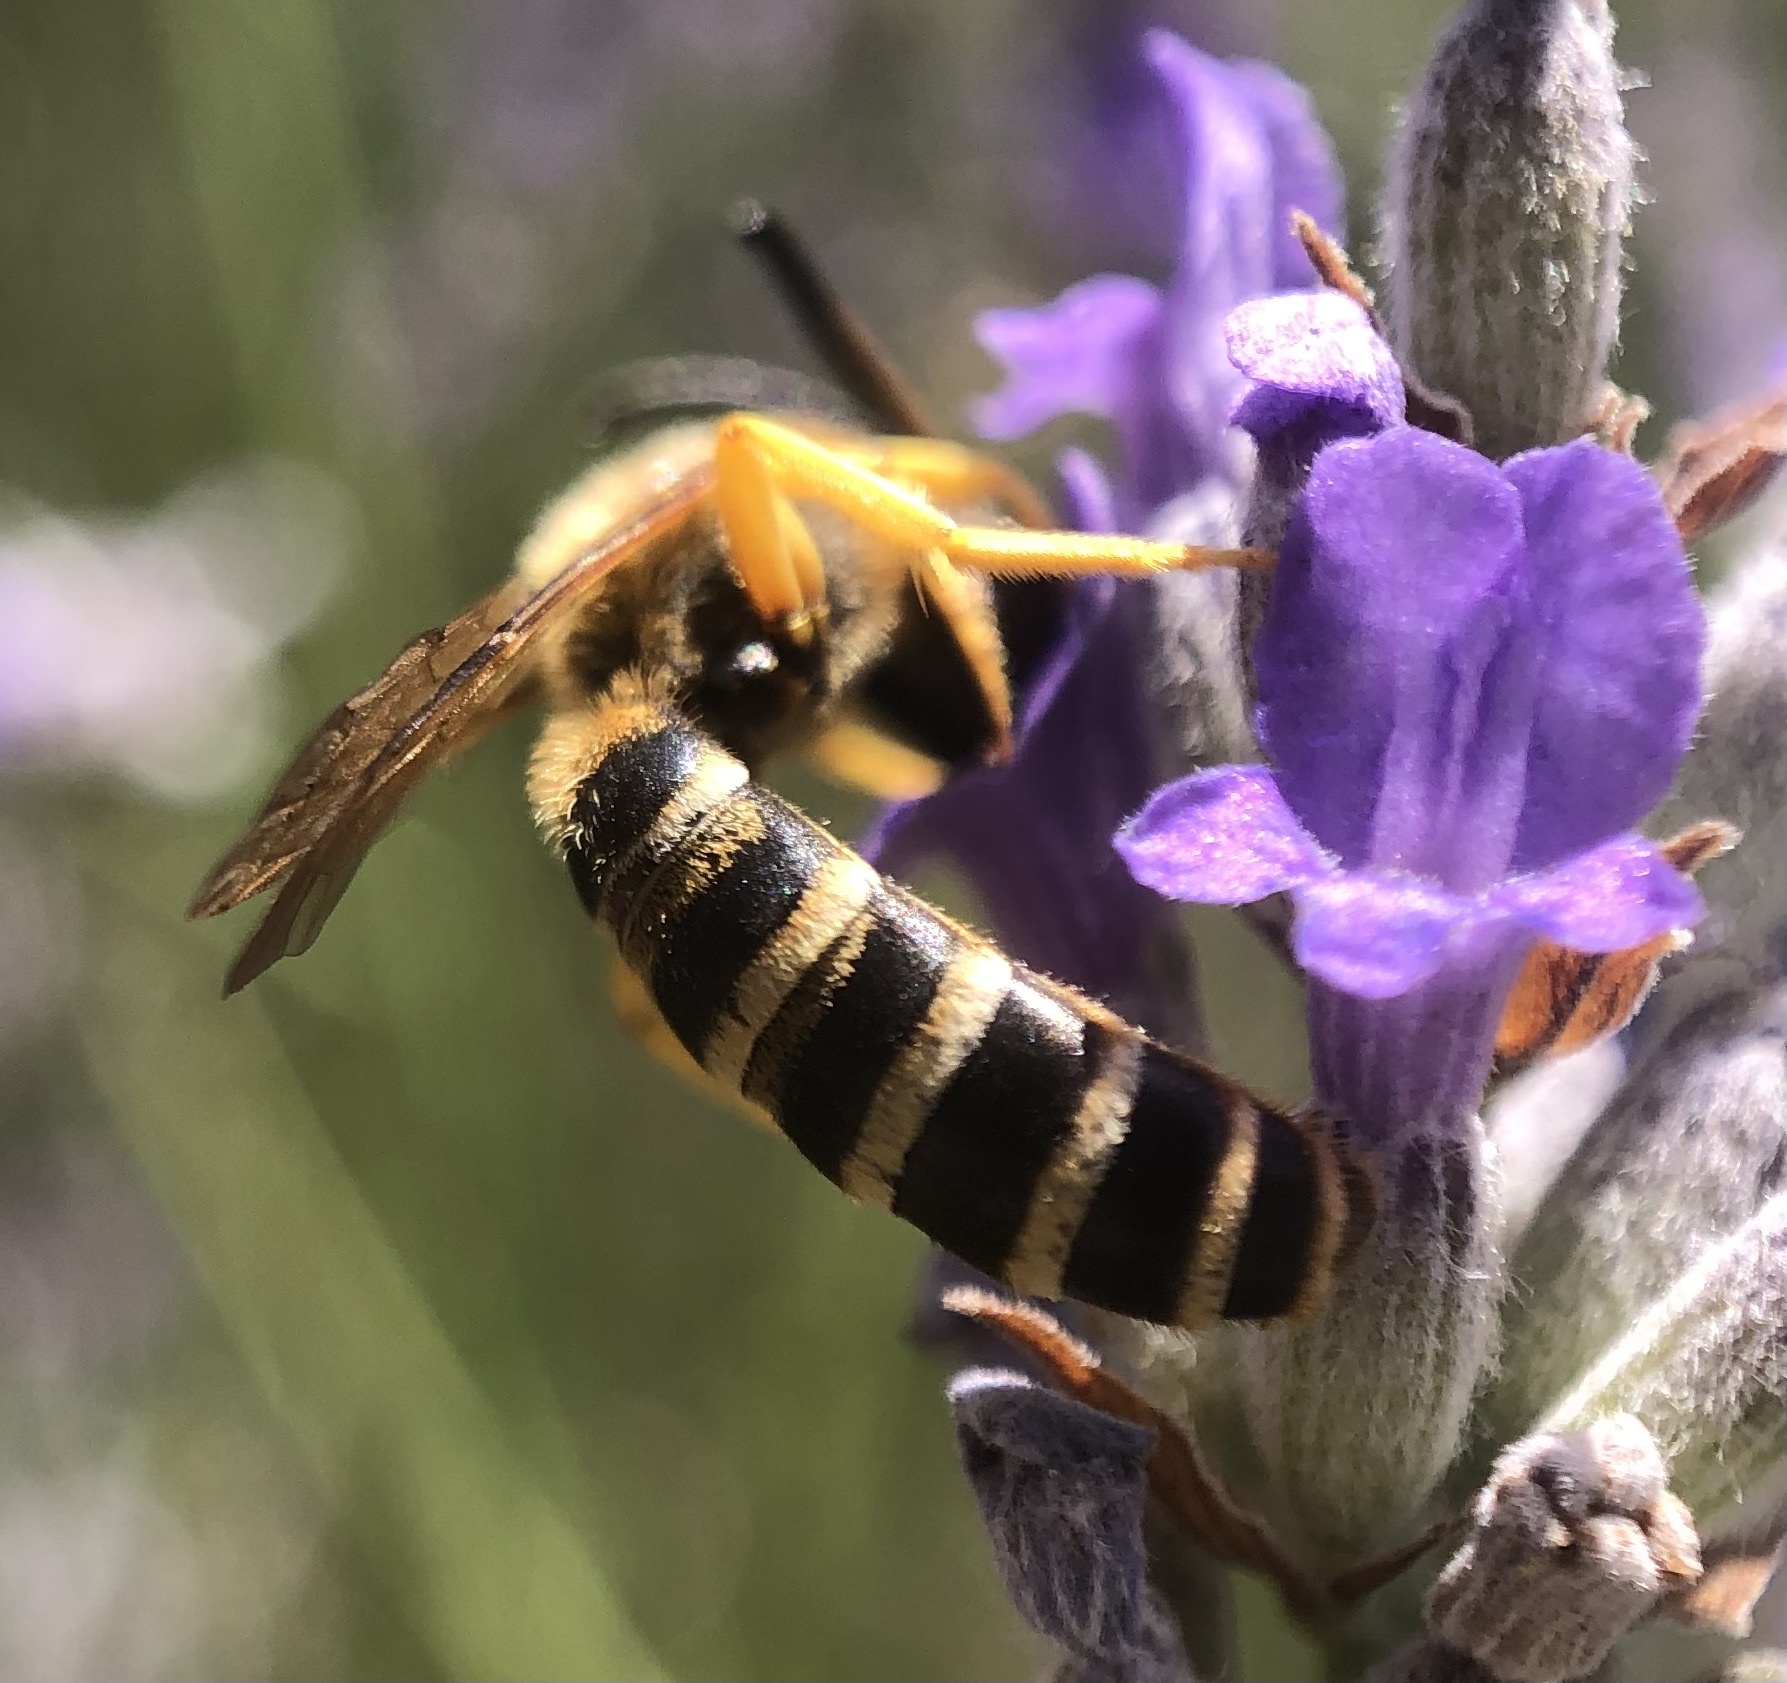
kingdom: Animalia
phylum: Arthropoda
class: Insecta
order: Hymenoptera
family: Halictidae
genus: Halictus
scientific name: Halictus scabiosae
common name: Great banded furrow bee
